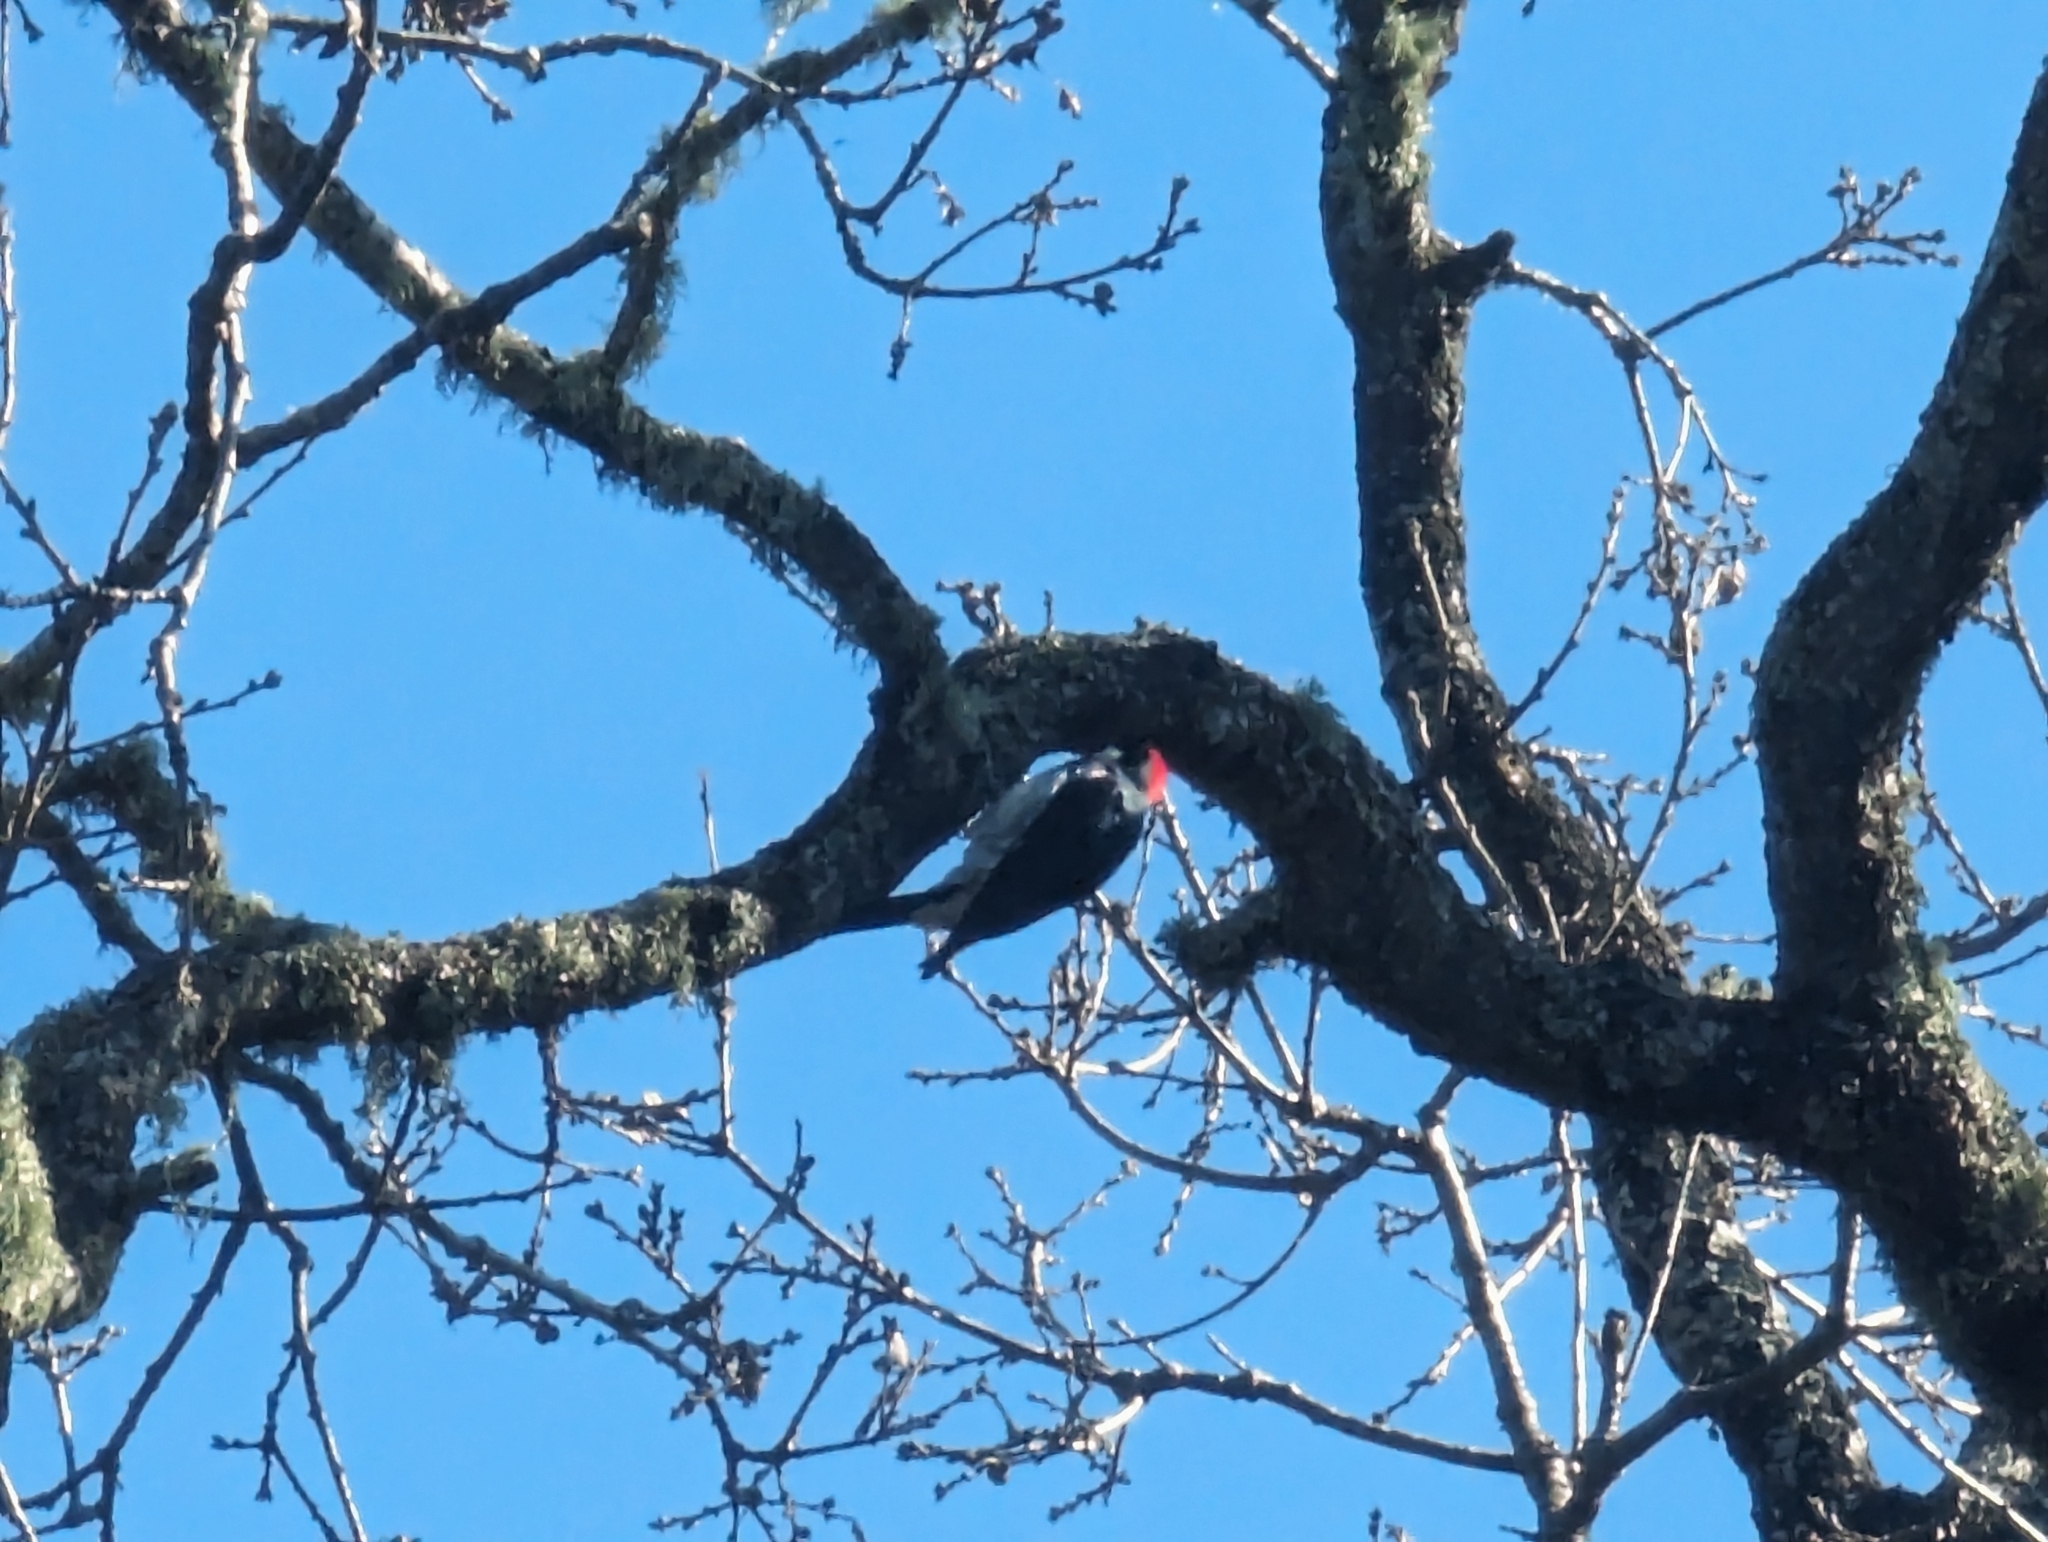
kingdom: Animalia
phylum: Chordata
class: Aves
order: Piciformes
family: Picidae
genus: Melanerpes
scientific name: Melanerpes formicivorus
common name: Acorn woodpecker
